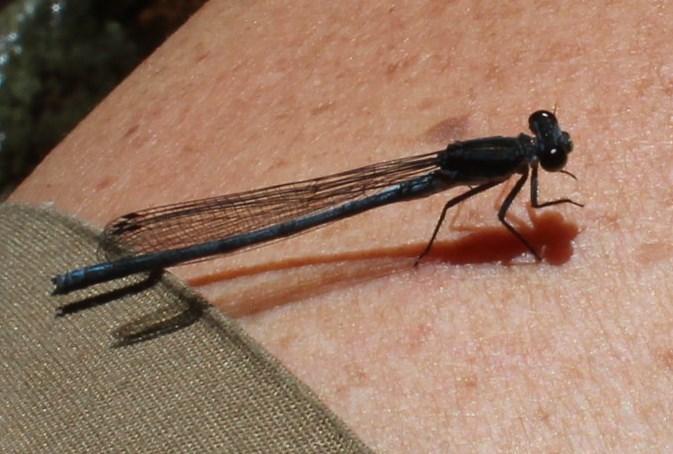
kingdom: Animalia
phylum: Arthropoda
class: Insecta
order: Odonata
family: Coenagrionidae
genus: Pseudagrion
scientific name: Pseudagrion furcigerum
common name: Palmiet sprite
